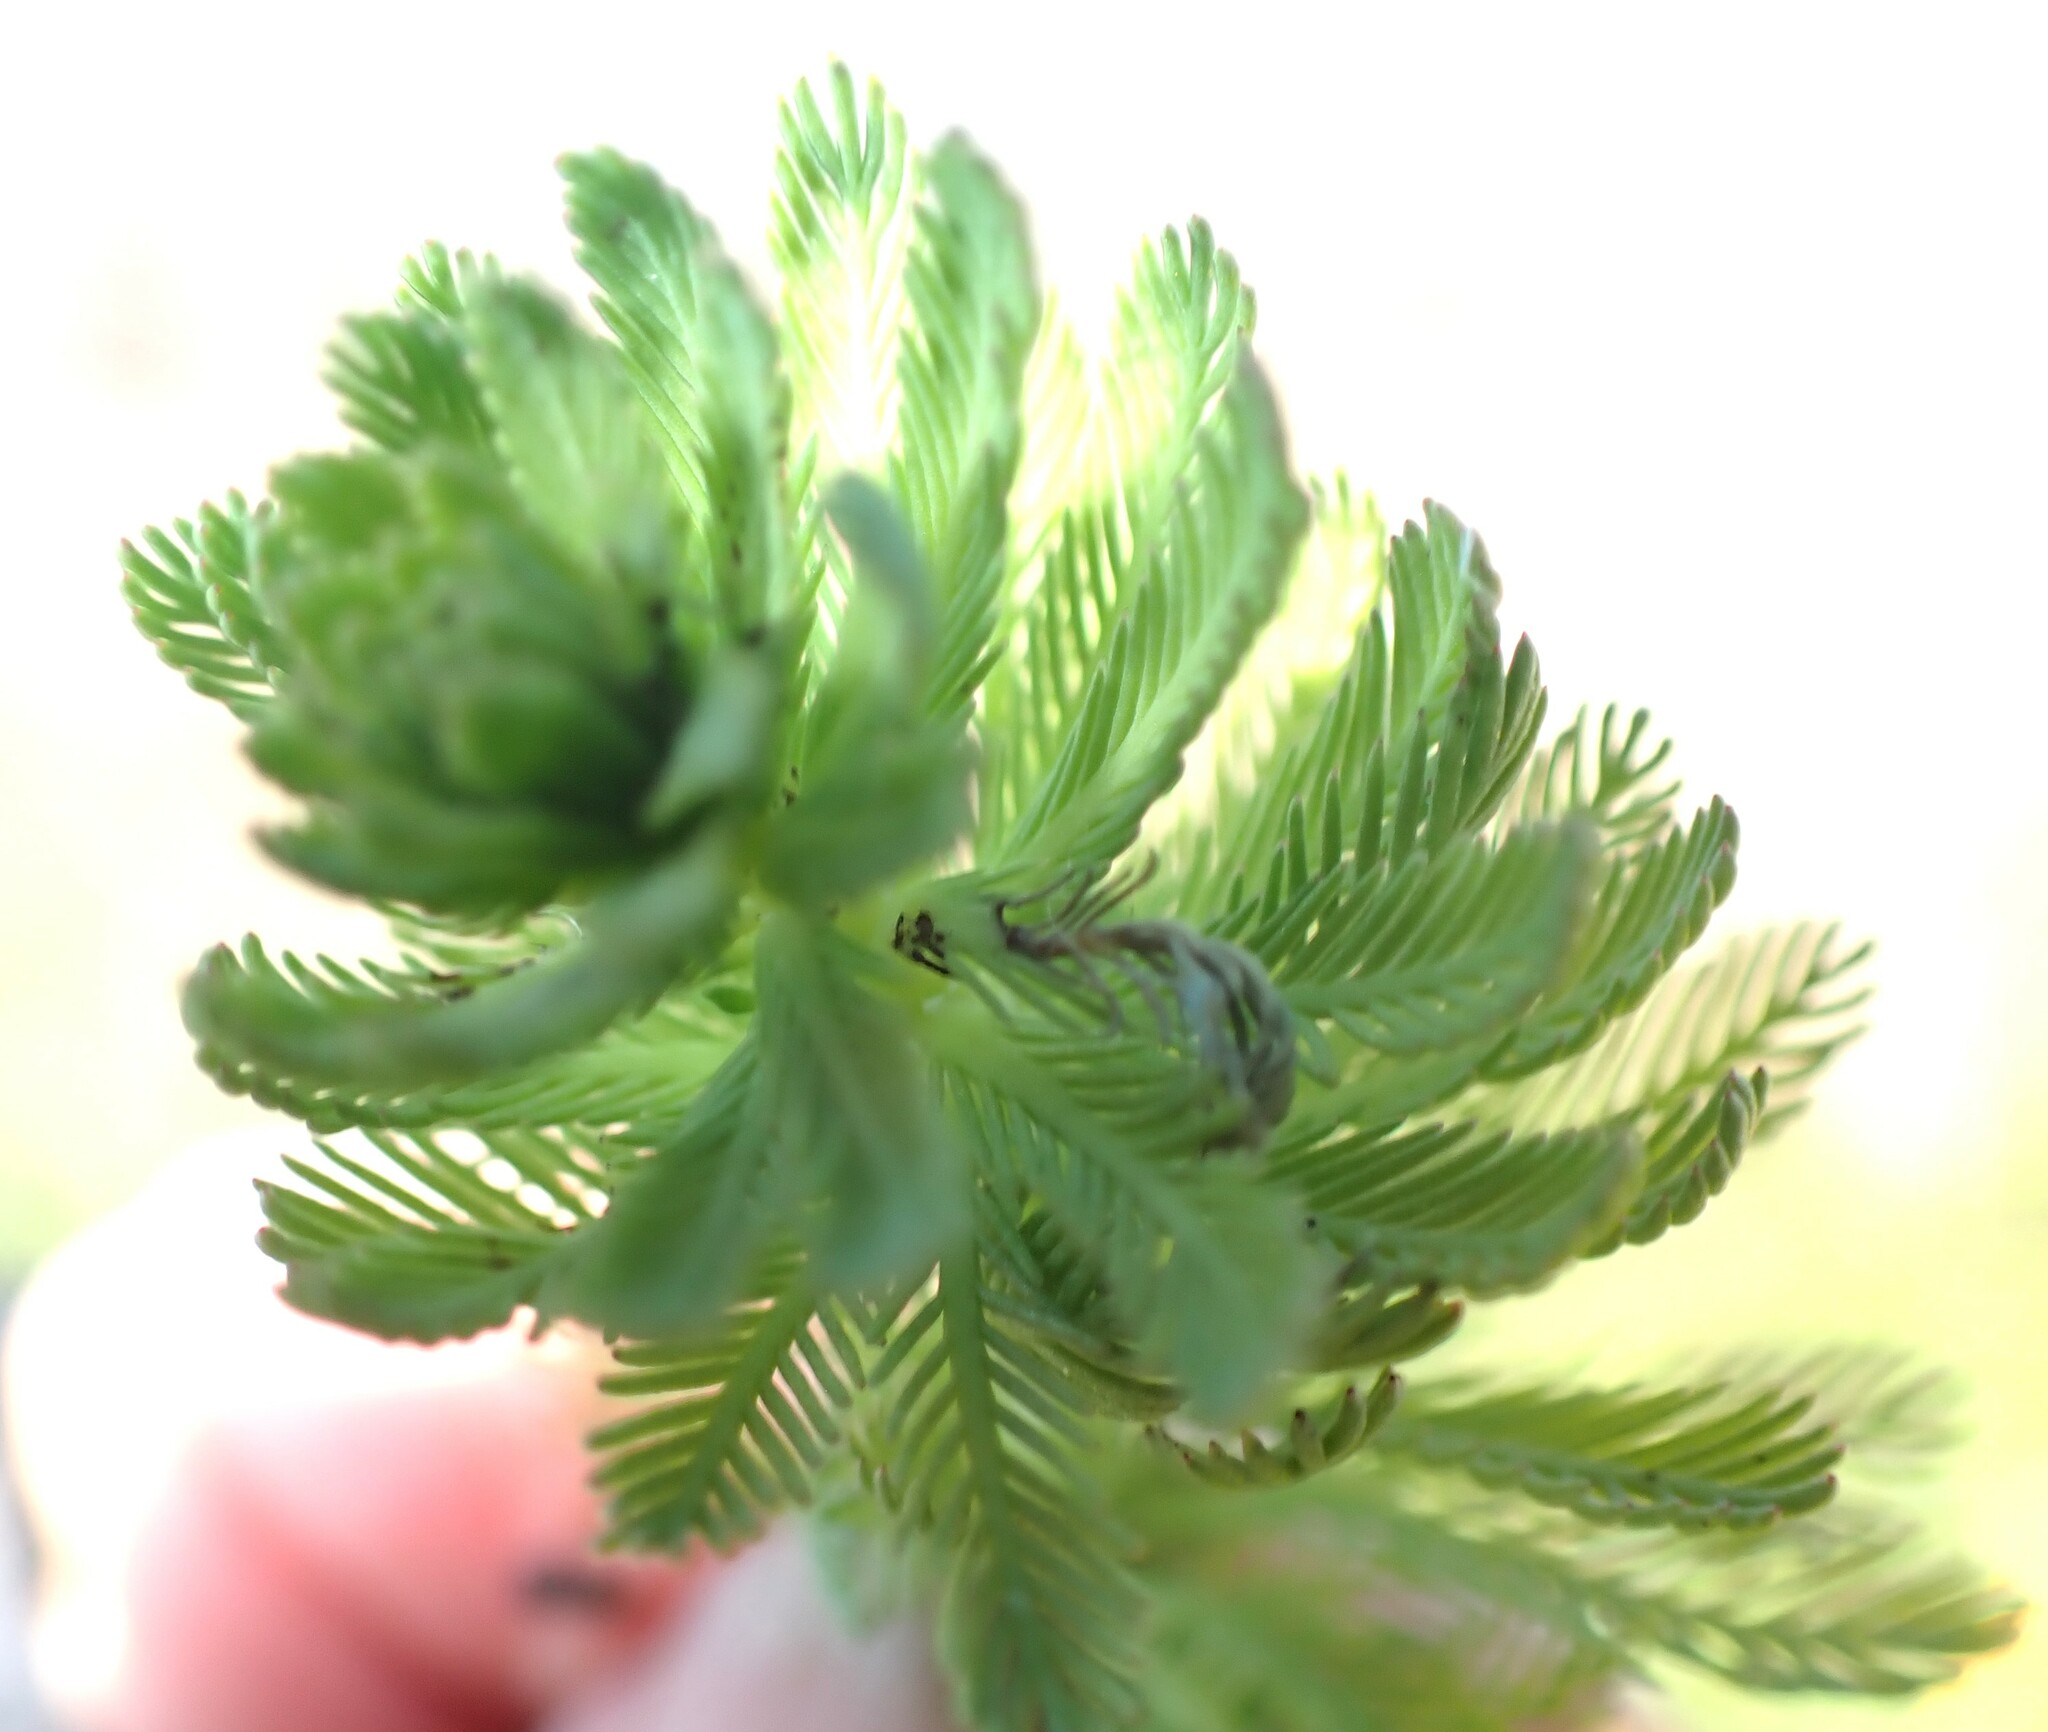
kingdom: Plantae
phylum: Tracheophyta
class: Magnoliopsida
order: Saxifragales
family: Haloragaceae
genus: Myriophyllum
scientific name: Myriophyllum aquaticum
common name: Parrot's feather
